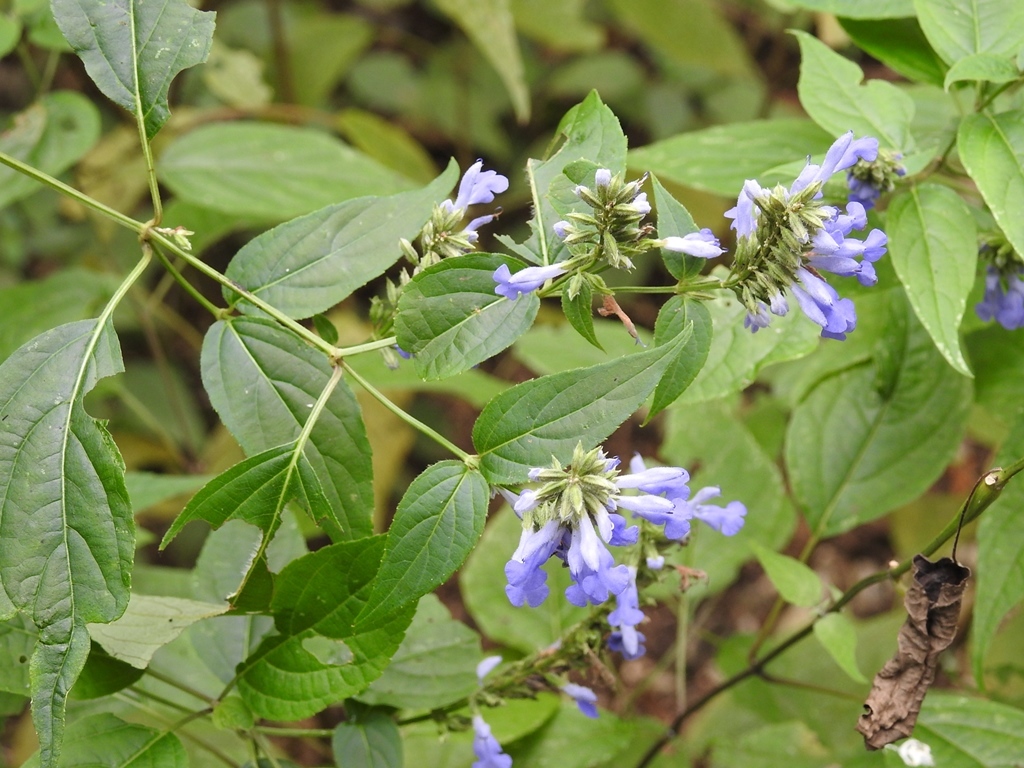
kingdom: Plantae
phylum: Tracheophyta
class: Magnoliopsida
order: Lamiales
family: Lamiaceae
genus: Salvia
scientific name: Salvia connivens
